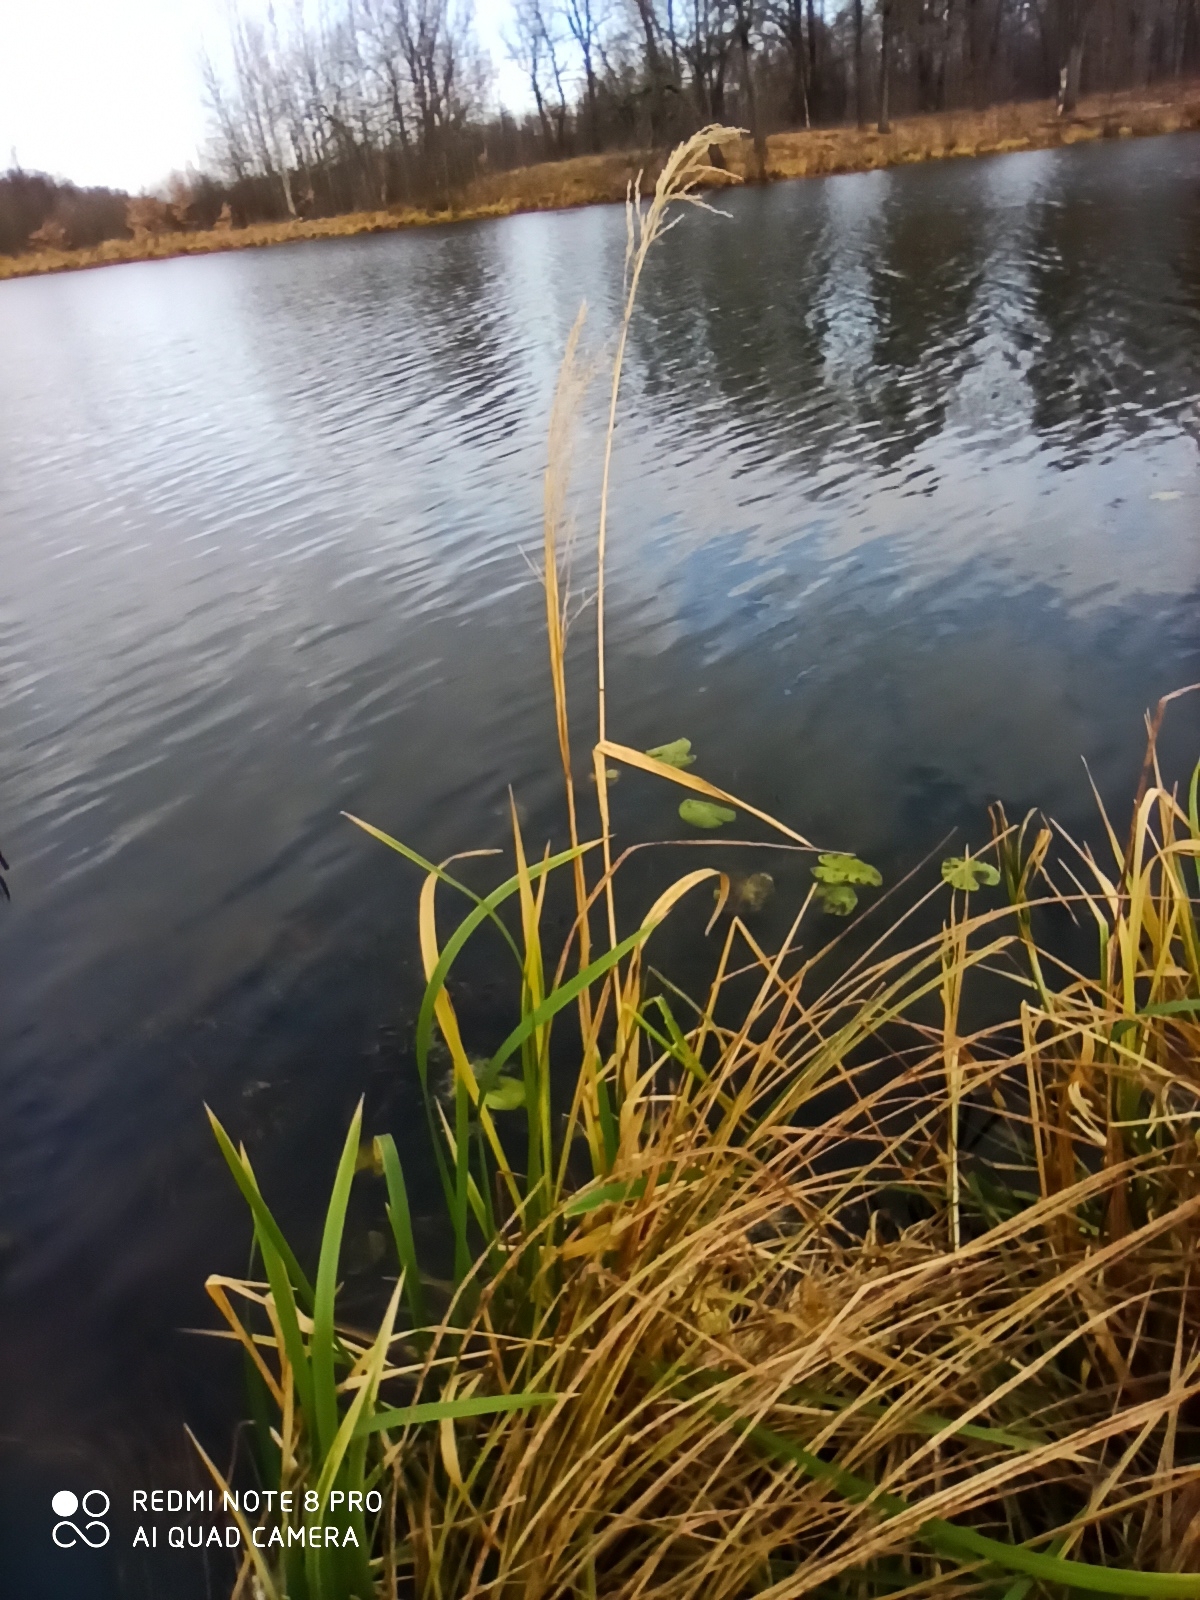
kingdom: Plantae
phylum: Tracheophyta
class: Liliopsida
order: Poales
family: Poaceae
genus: Glyceria
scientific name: Glyceria maxima
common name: Reed mannagrass
